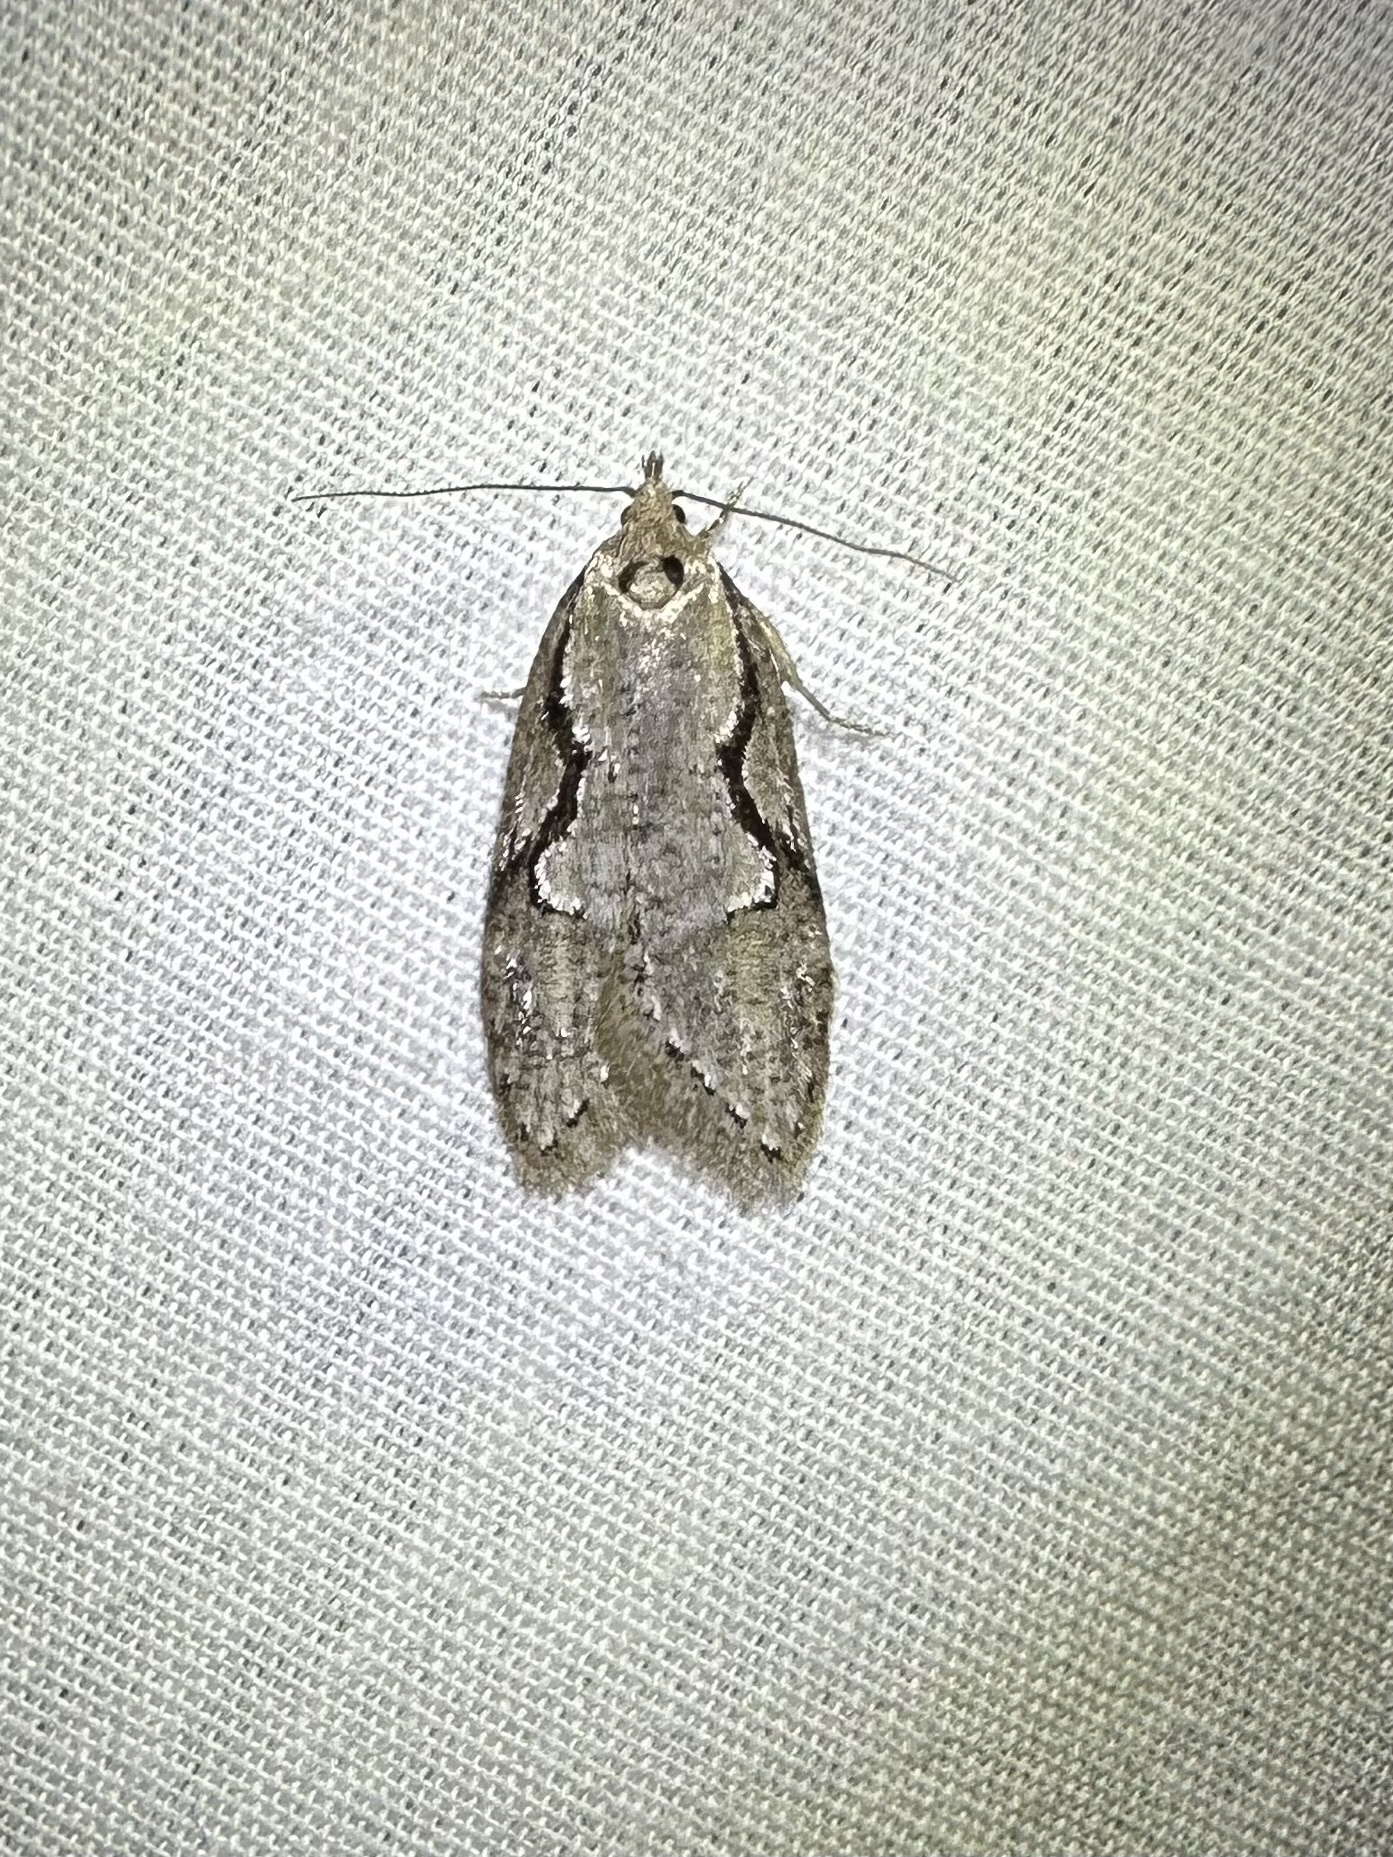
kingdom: Animalia
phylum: Arthropoda
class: Insecta
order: Lepidoptera
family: Depressariidae
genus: Semioscopis
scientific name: Semioscopis packardella
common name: Packard's concealer moth
